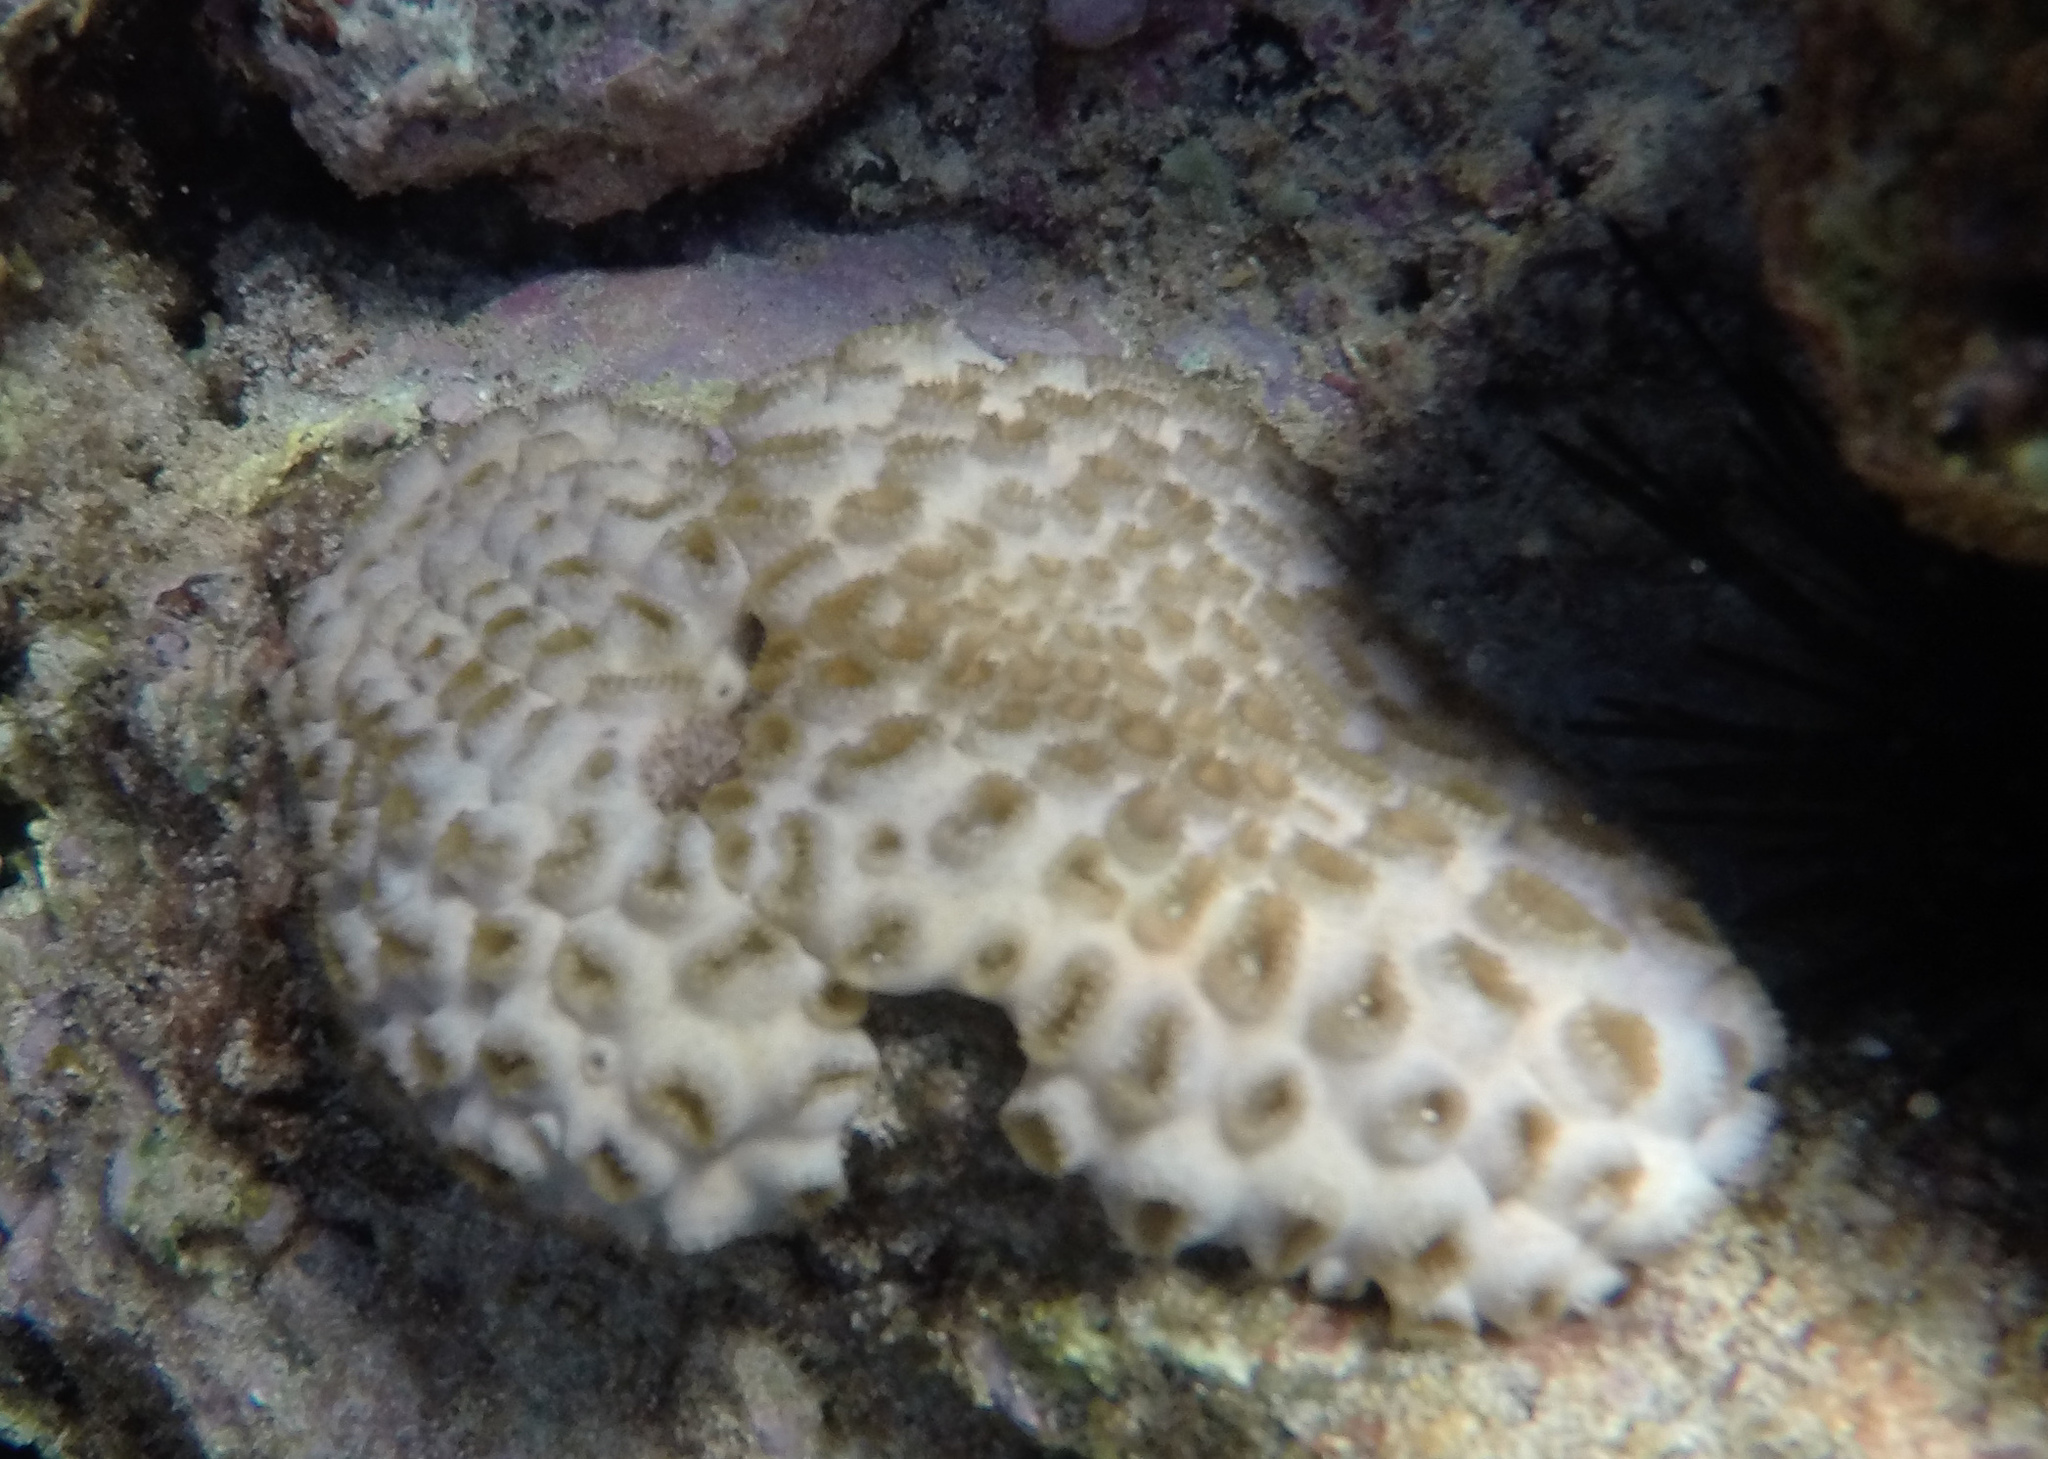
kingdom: Animalia
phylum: Cnidaria
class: Anthozoa
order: Zoantharia
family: Sphenopidae
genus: Palythoa
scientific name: Palythoa tuberculosa
